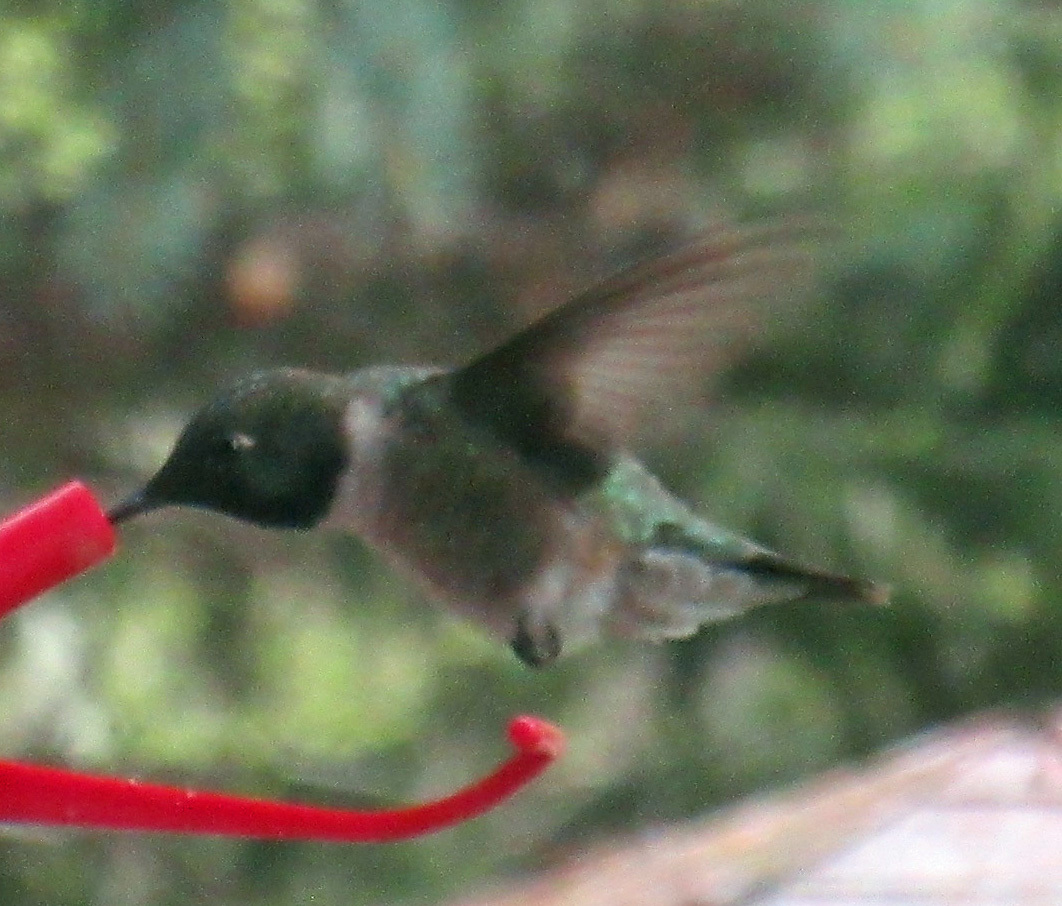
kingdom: Animalia
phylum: Chordata
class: Aves
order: Apodiformes
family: Trochilidae
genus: Archilochus
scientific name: Archilochus alexandri
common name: Black-chinned hummingbird
